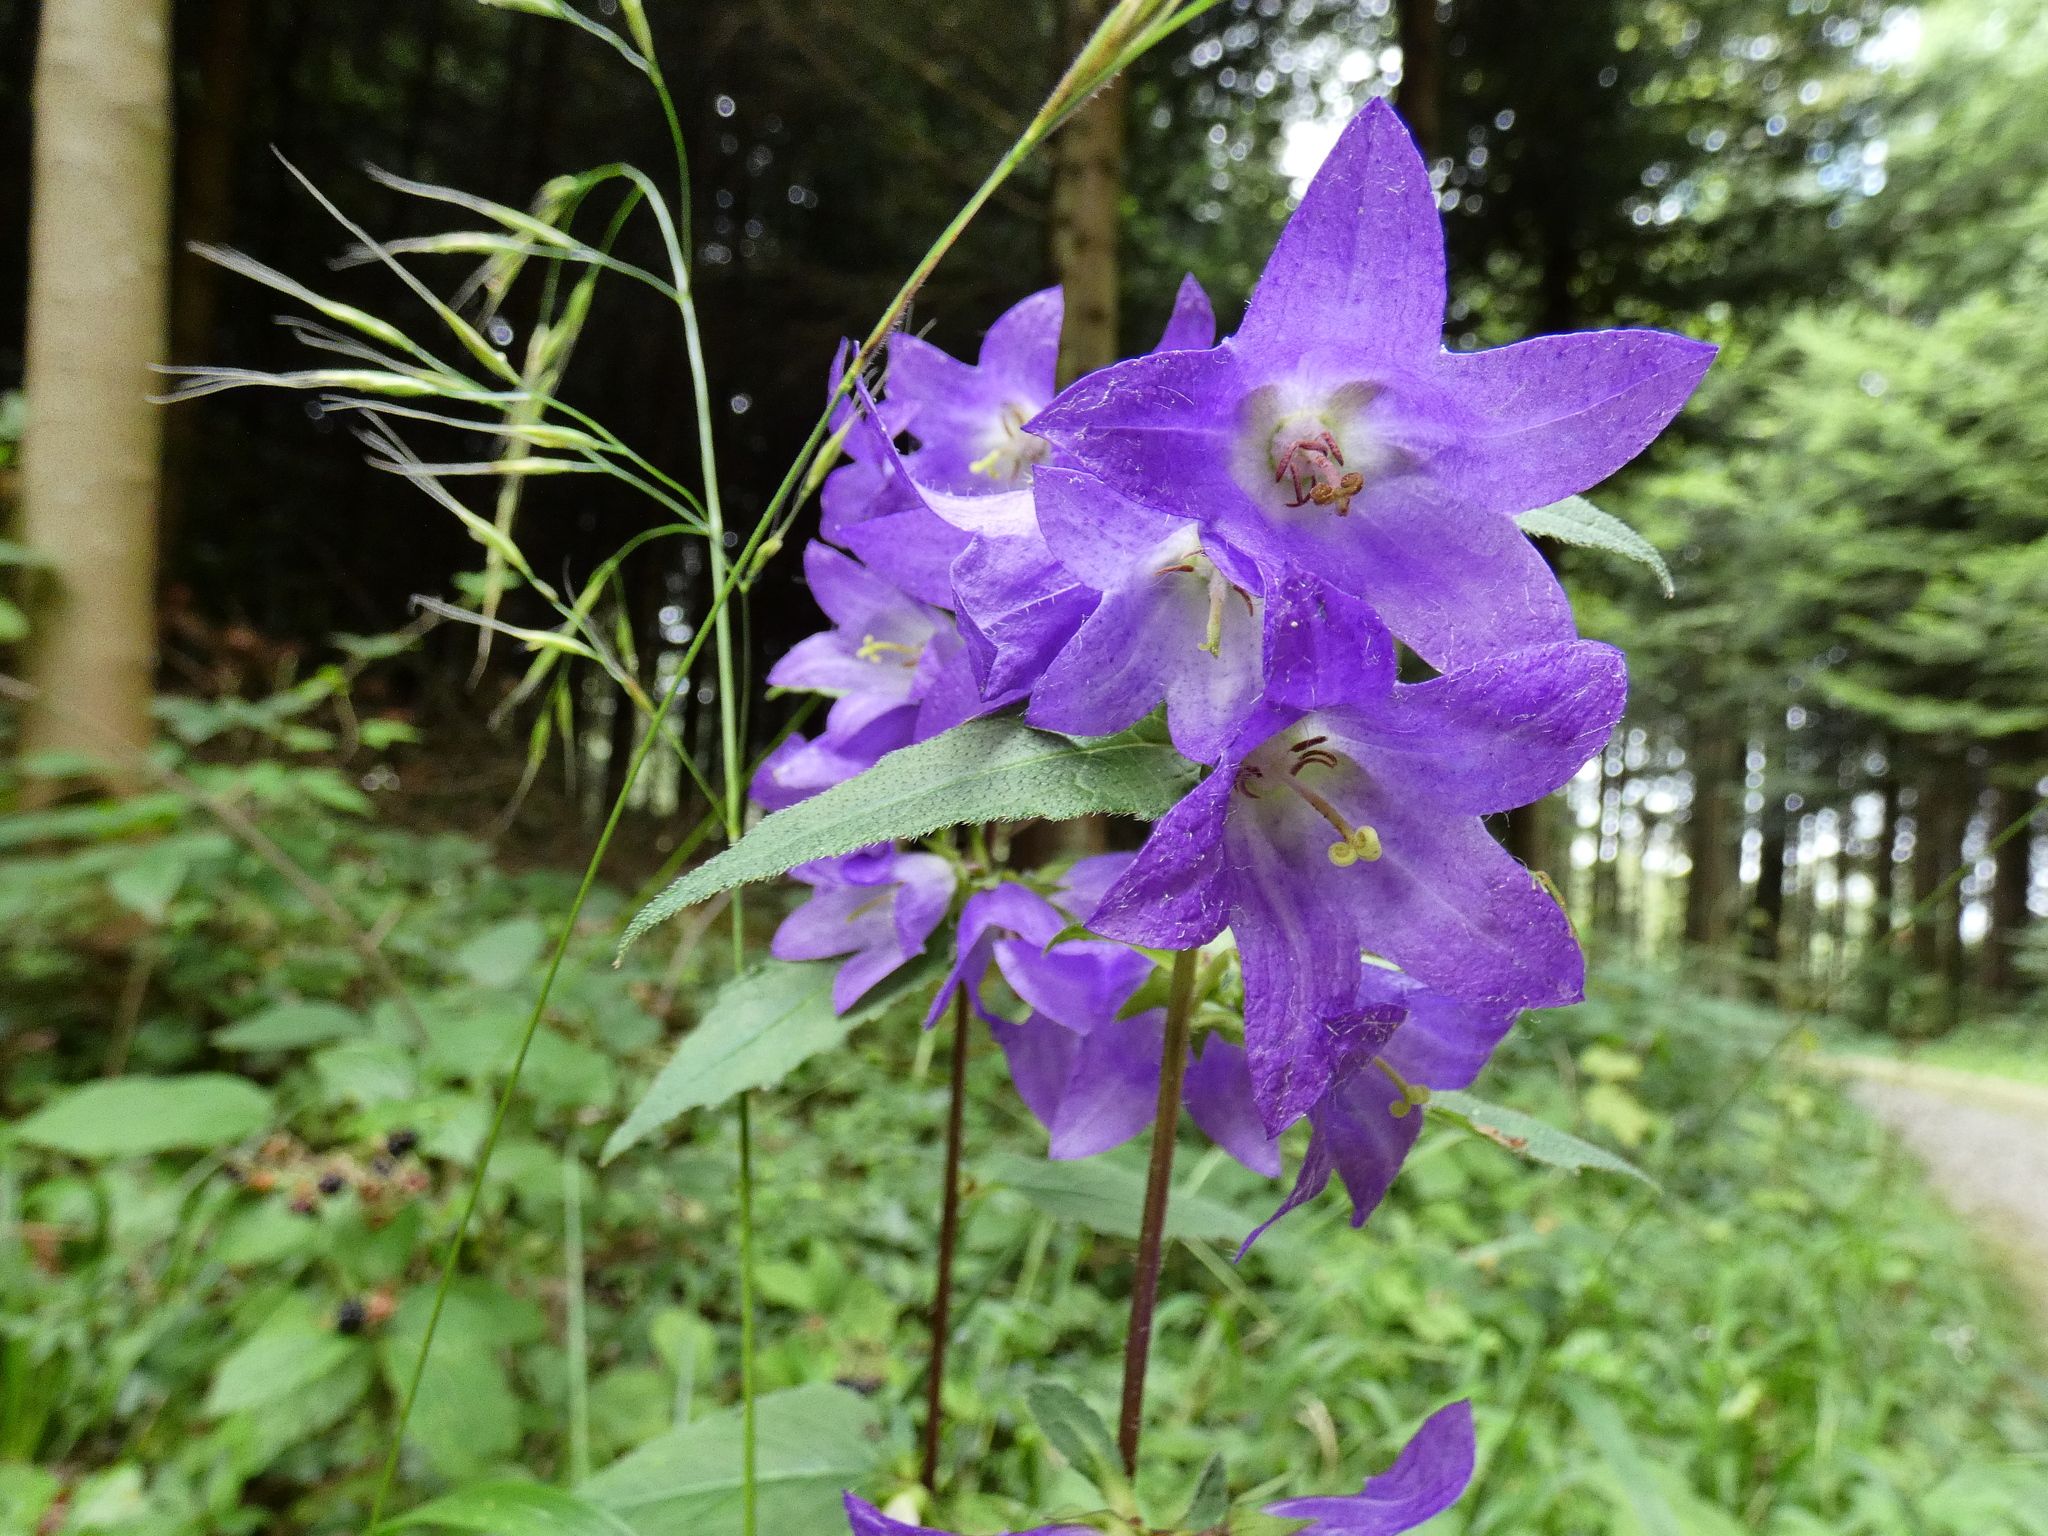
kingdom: Plantae
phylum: Tracheophyta
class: Magnoliopsida
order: Asterales
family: Campanulaceae
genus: Campanula
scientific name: Campanula trachelium
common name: Nettle-leaved bellflower
